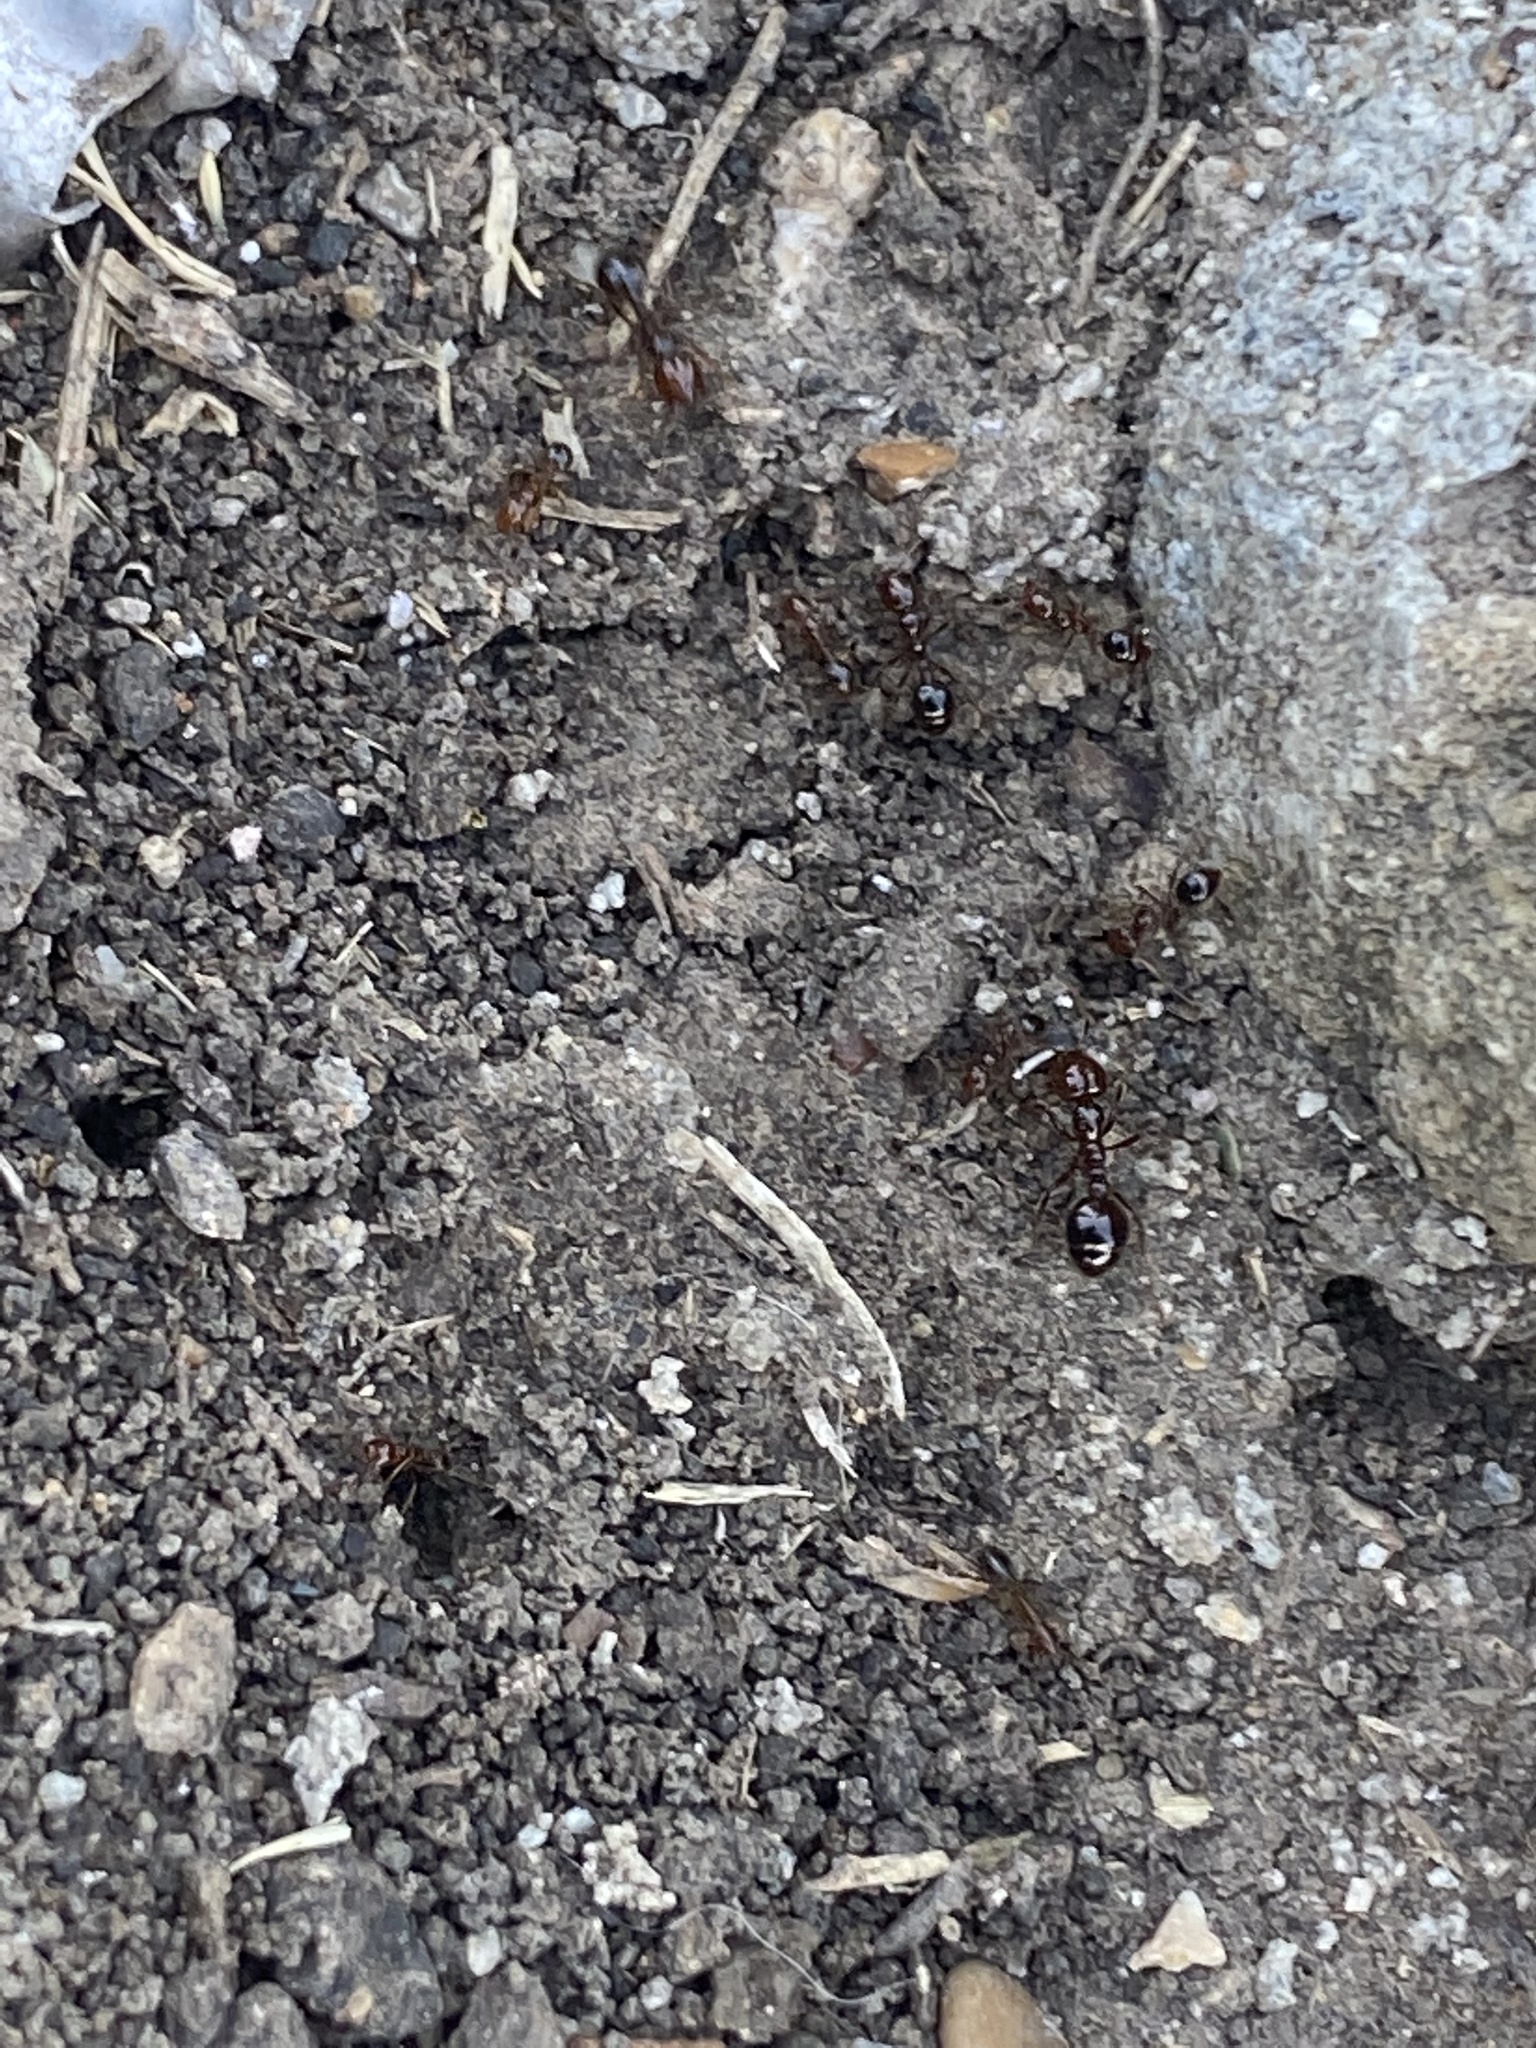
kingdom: Animalia
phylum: Arthropoda
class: Insecta
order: Hymenoptera
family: Formicidae
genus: Solenopsis
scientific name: Solenopsis invicta
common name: Red imported fire ant
